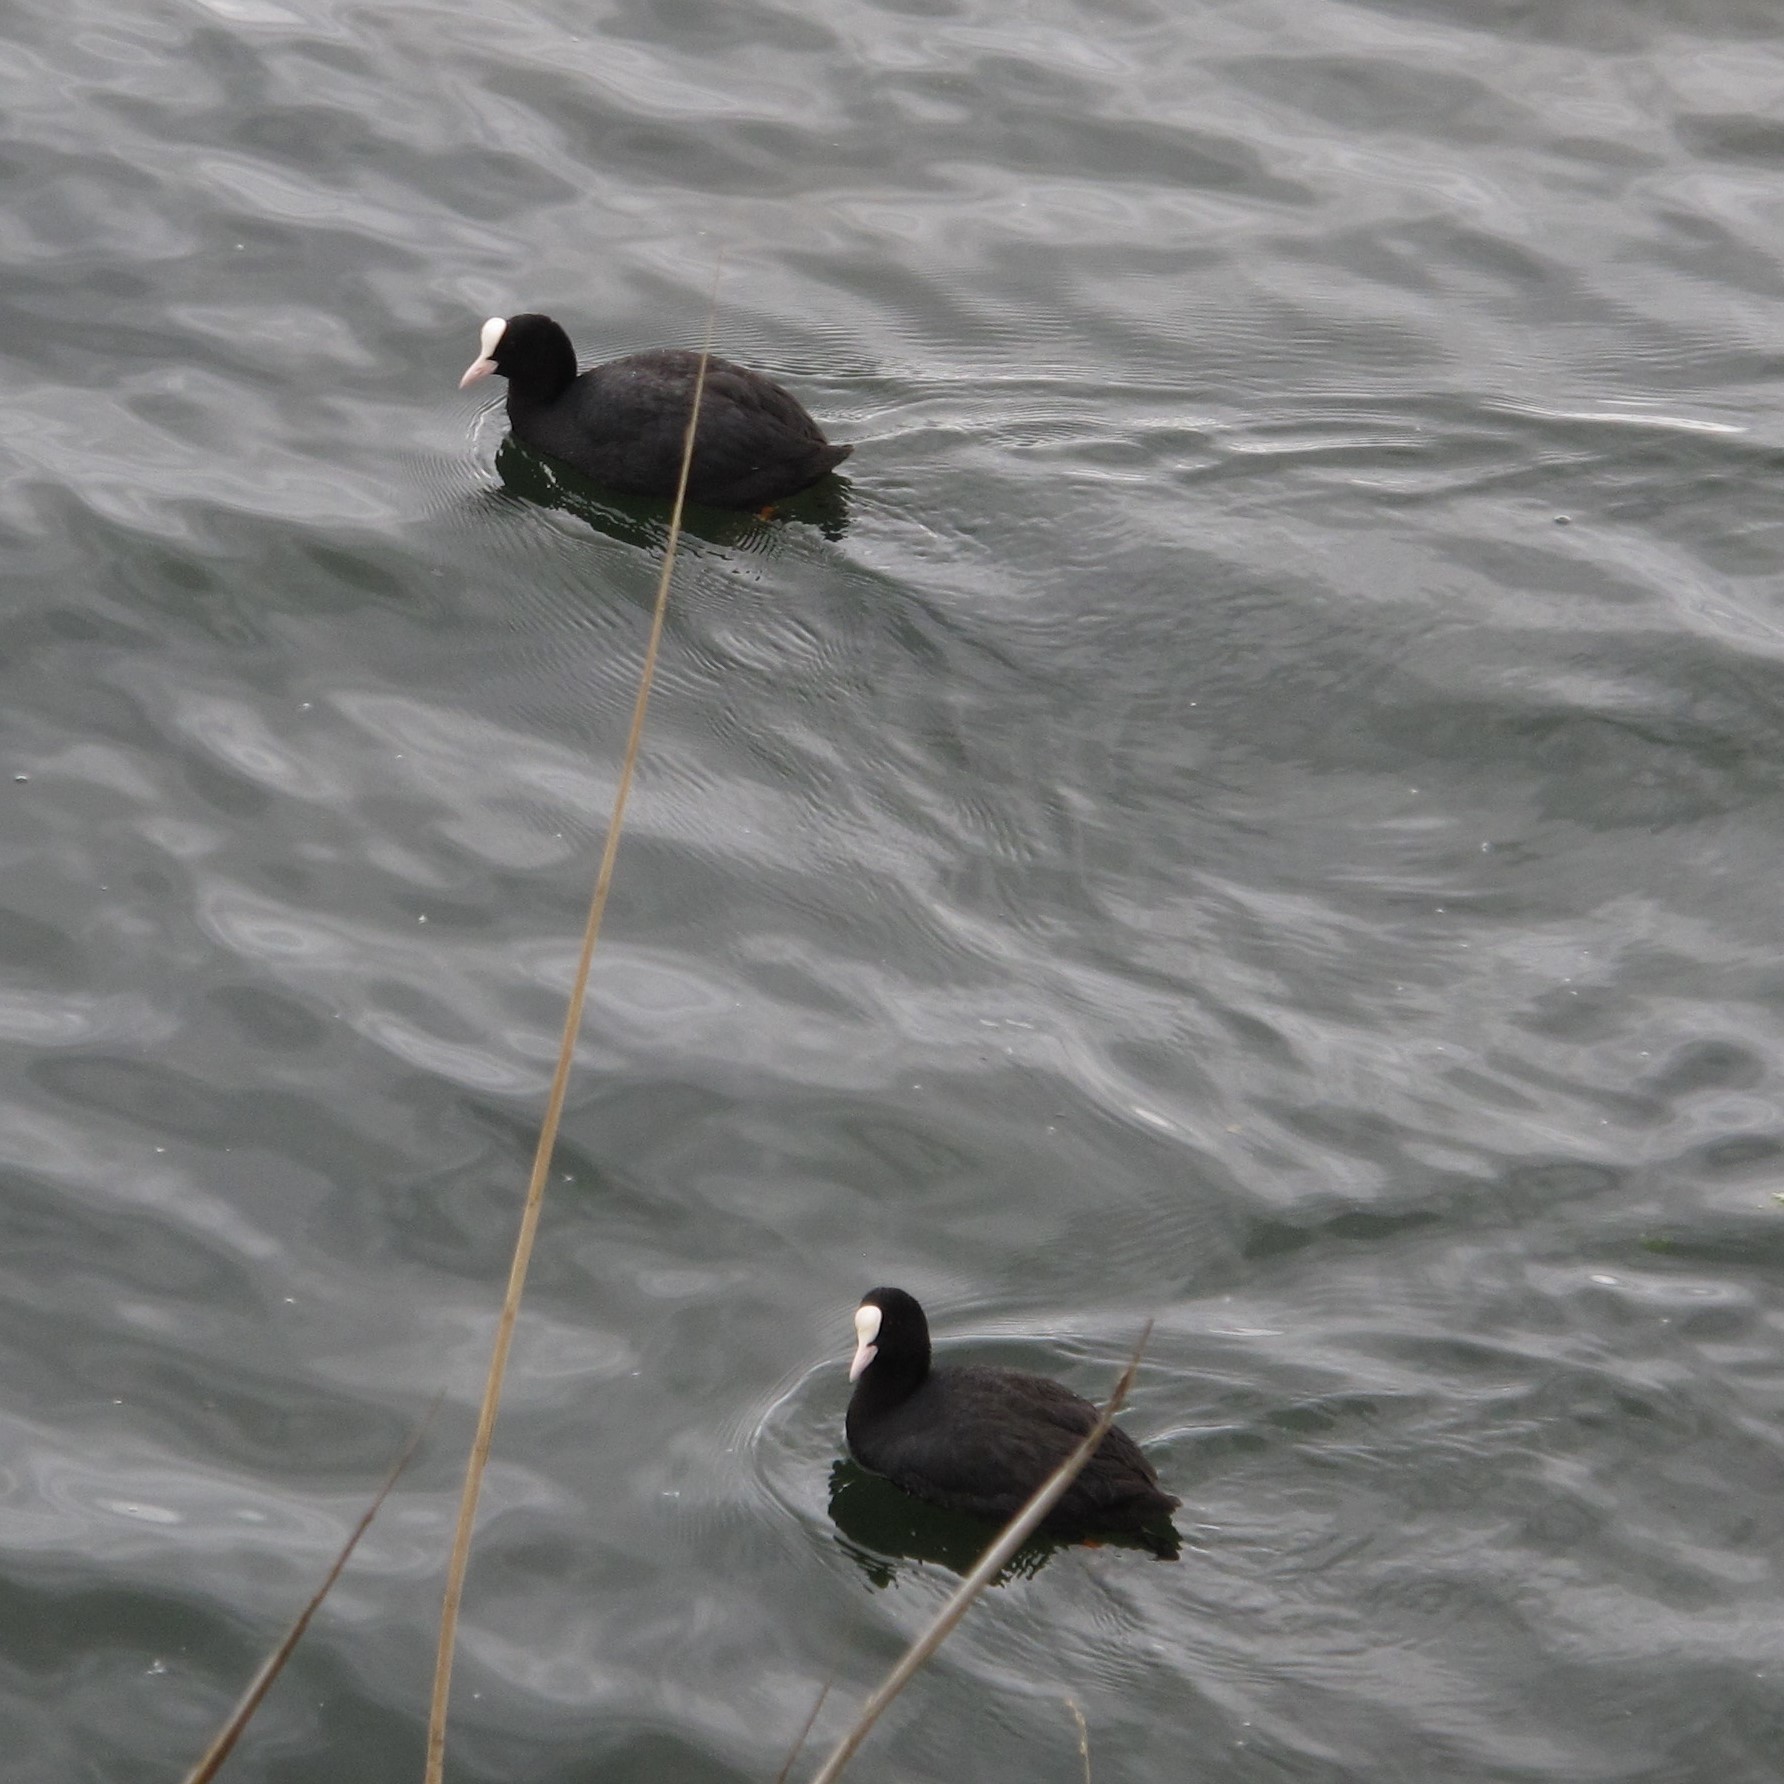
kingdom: Animalia
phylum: Chordata
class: Aves
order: Gruiformes
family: Rallidae
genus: Fulica
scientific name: Fulica atra
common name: Eurasian coot
